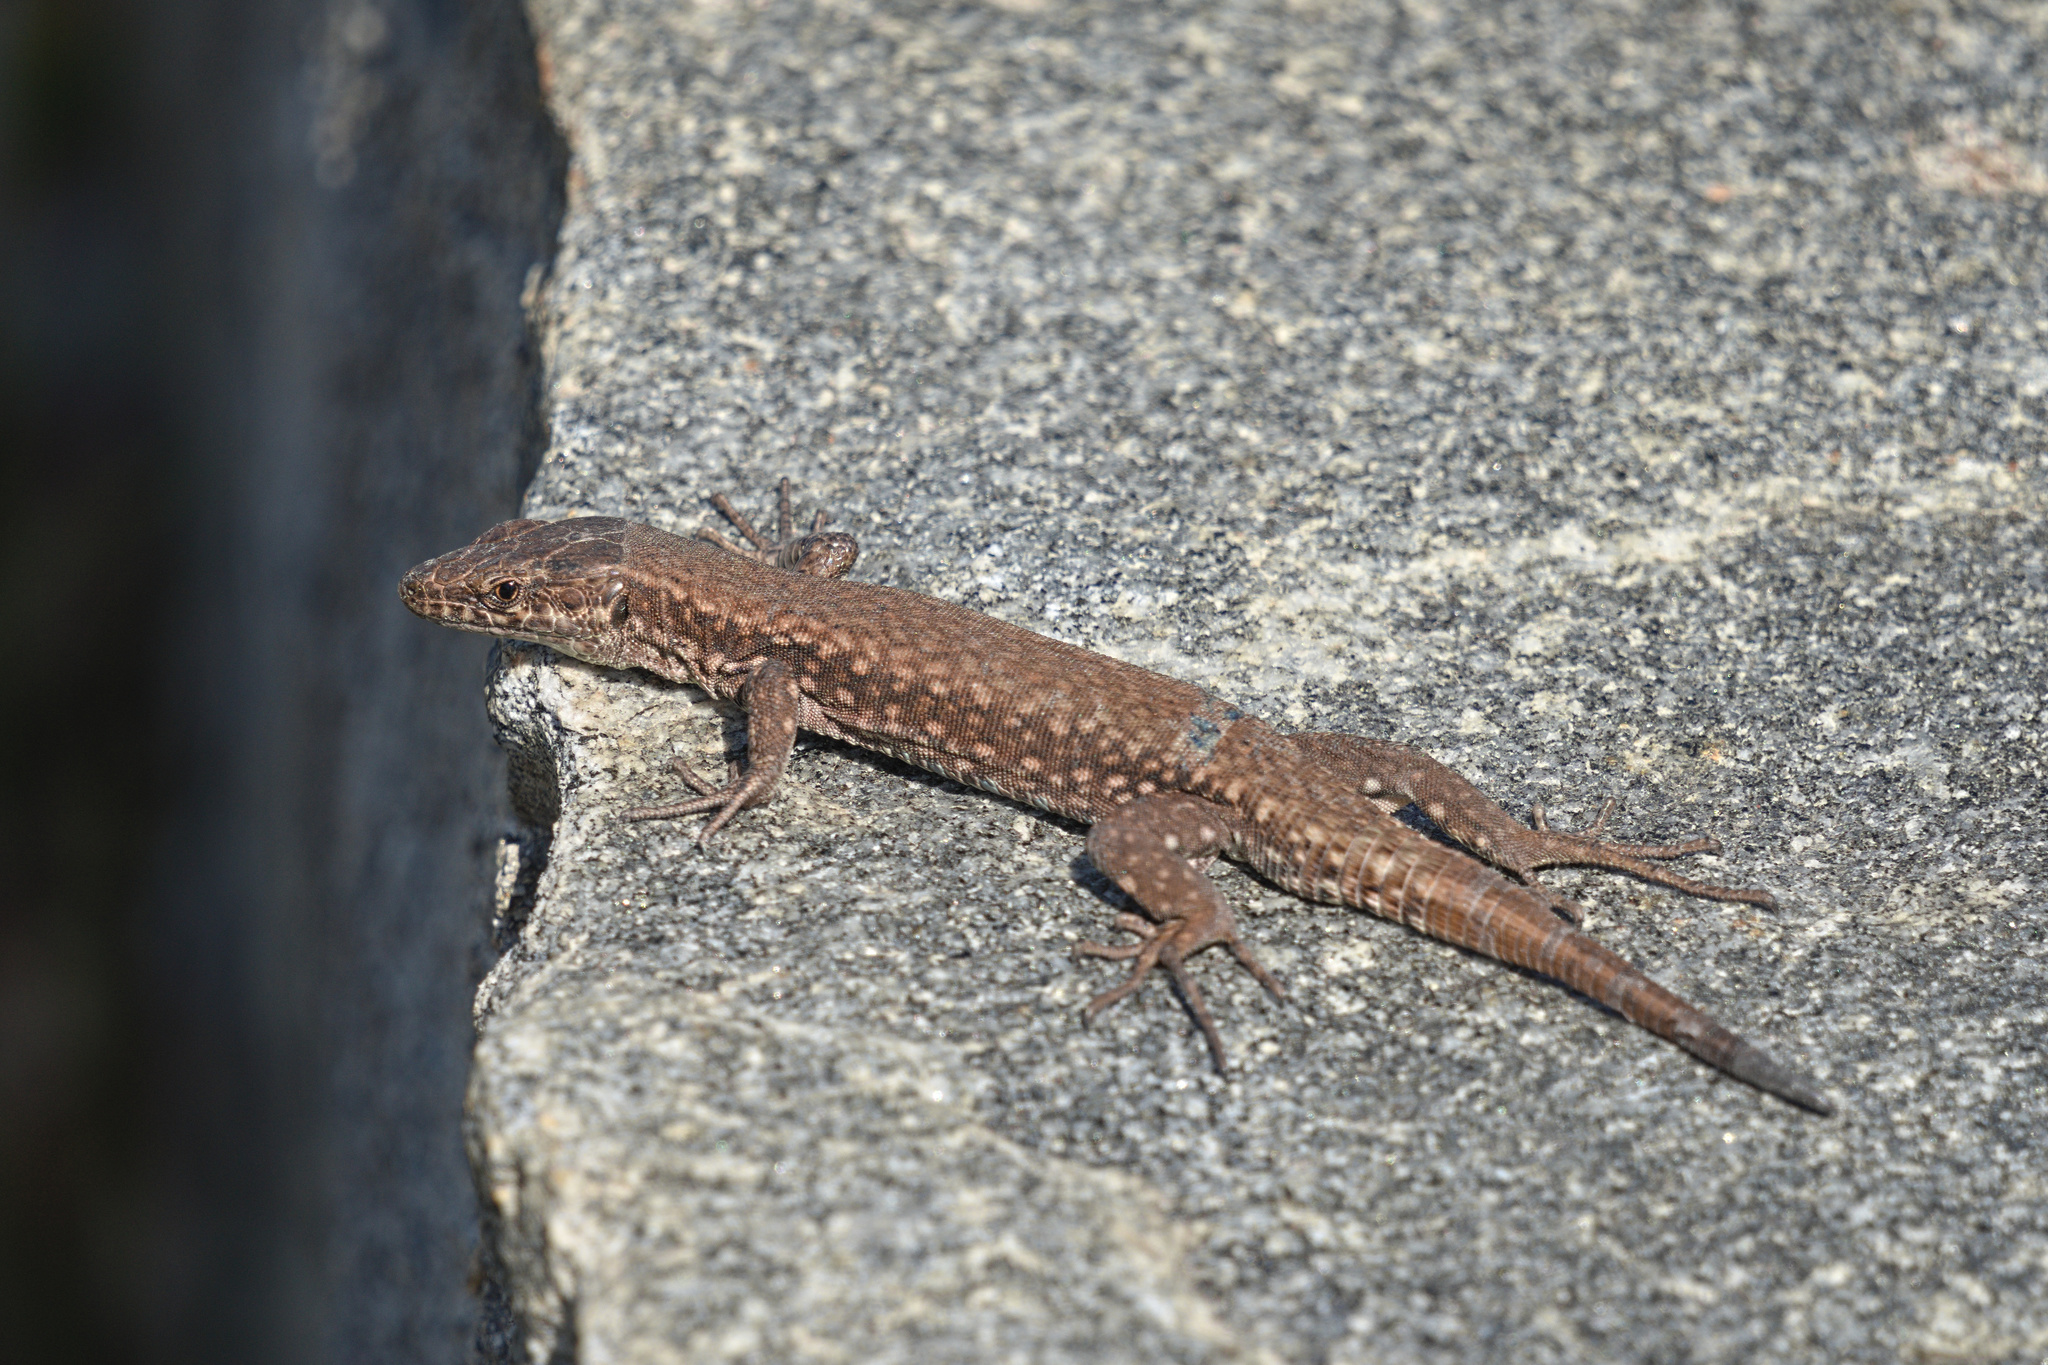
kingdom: Animalia
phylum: Chordata
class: Squamata
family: Lacertidae
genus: Podarcis
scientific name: Podarcis muralis
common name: Common wall lizard
